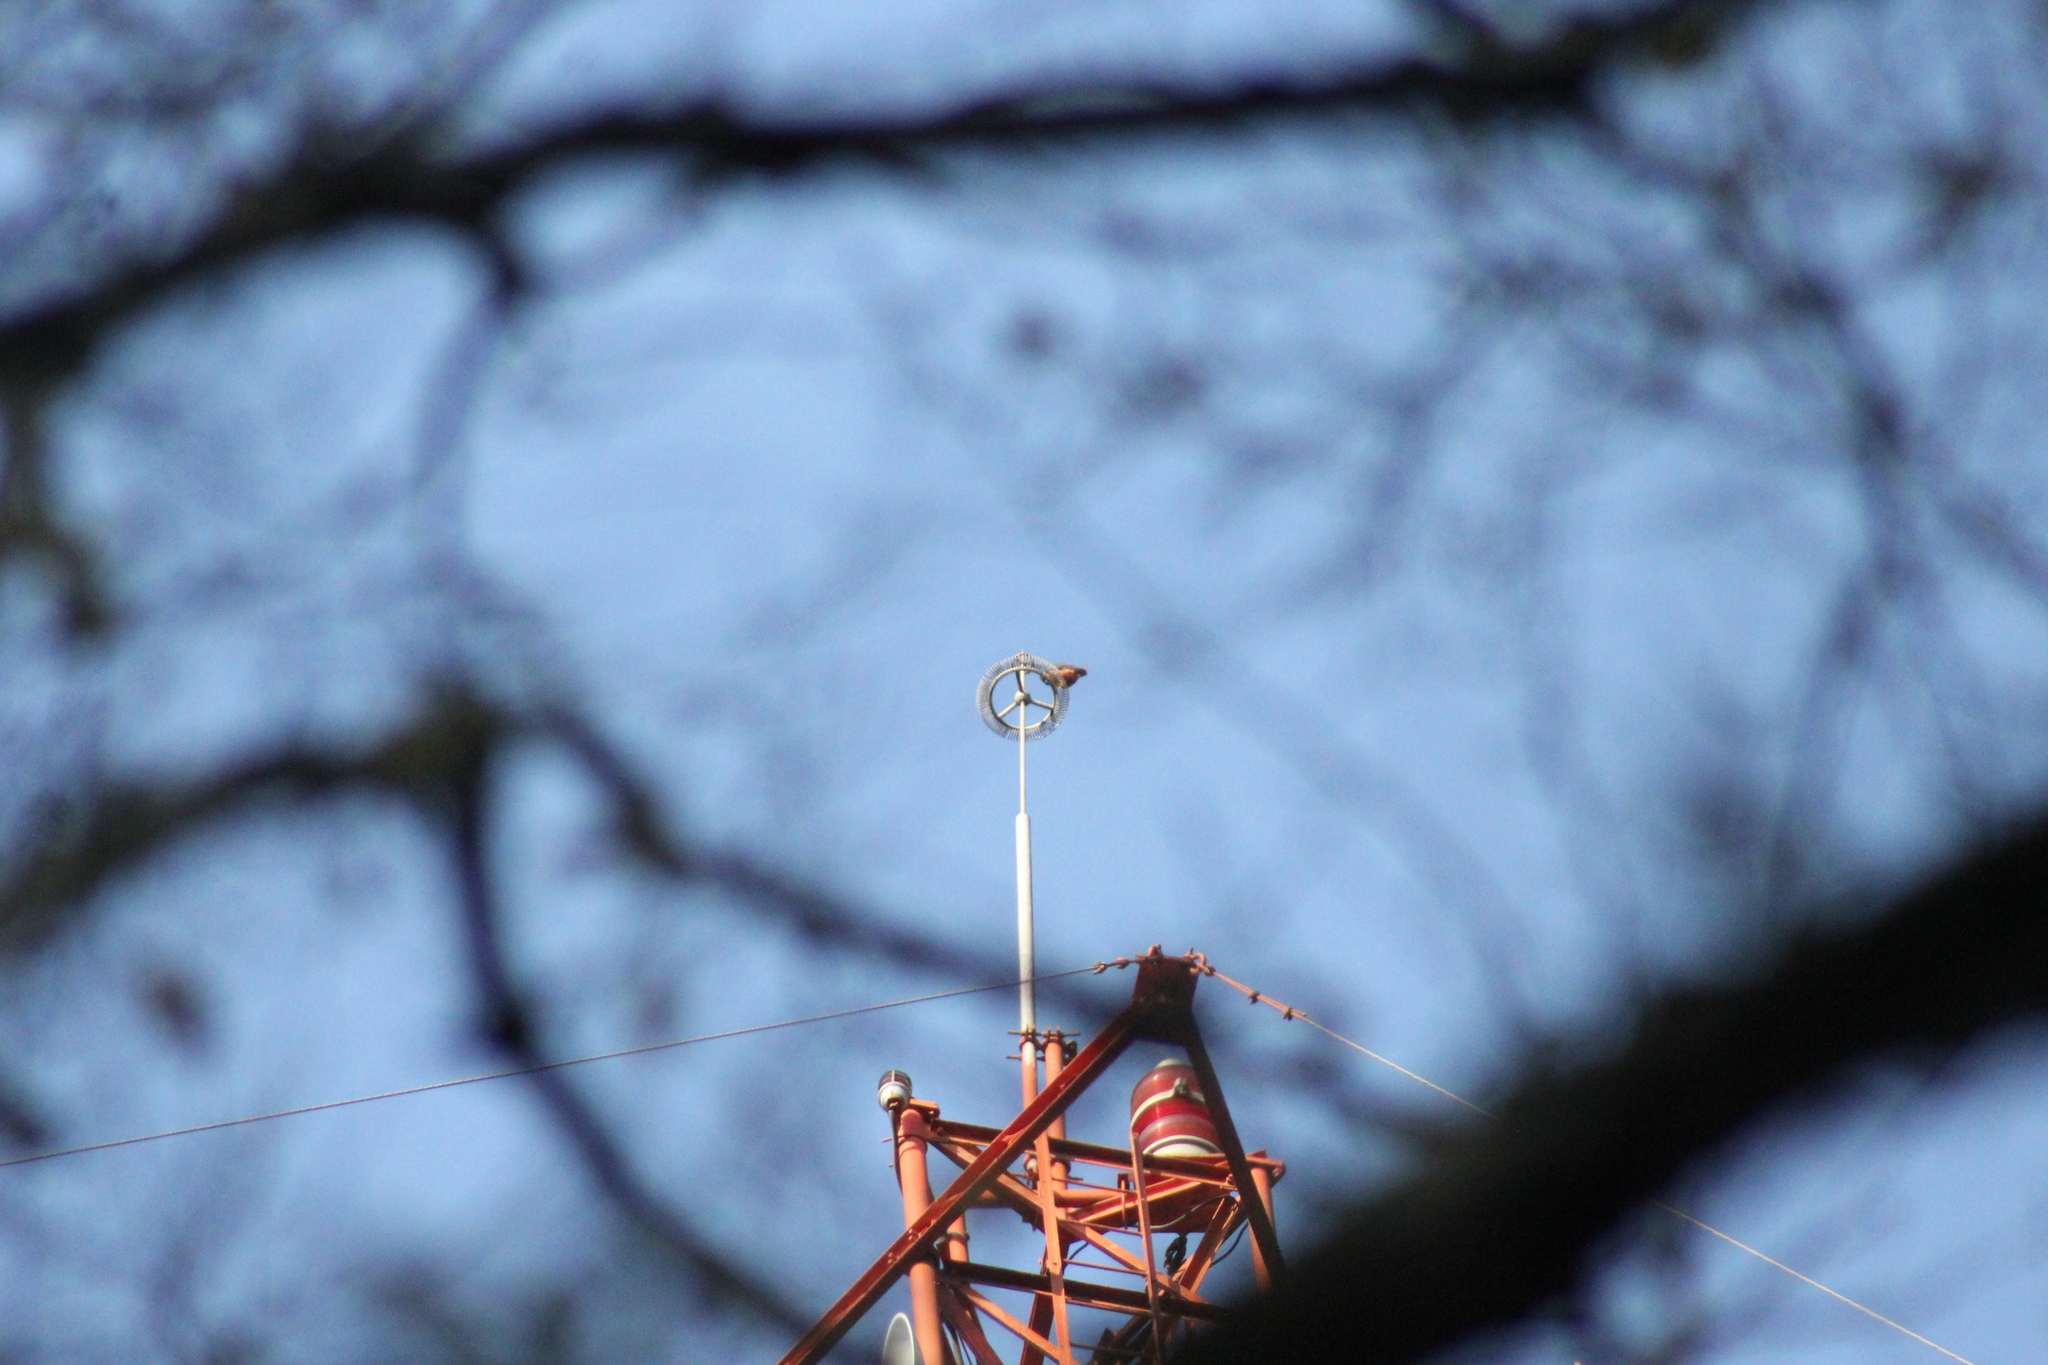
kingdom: Animalia
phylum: Chordata
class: Aves
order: Falconiformes
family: Falconidae
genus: Falco
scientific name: Falco rufigularis
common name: Bat falcon
